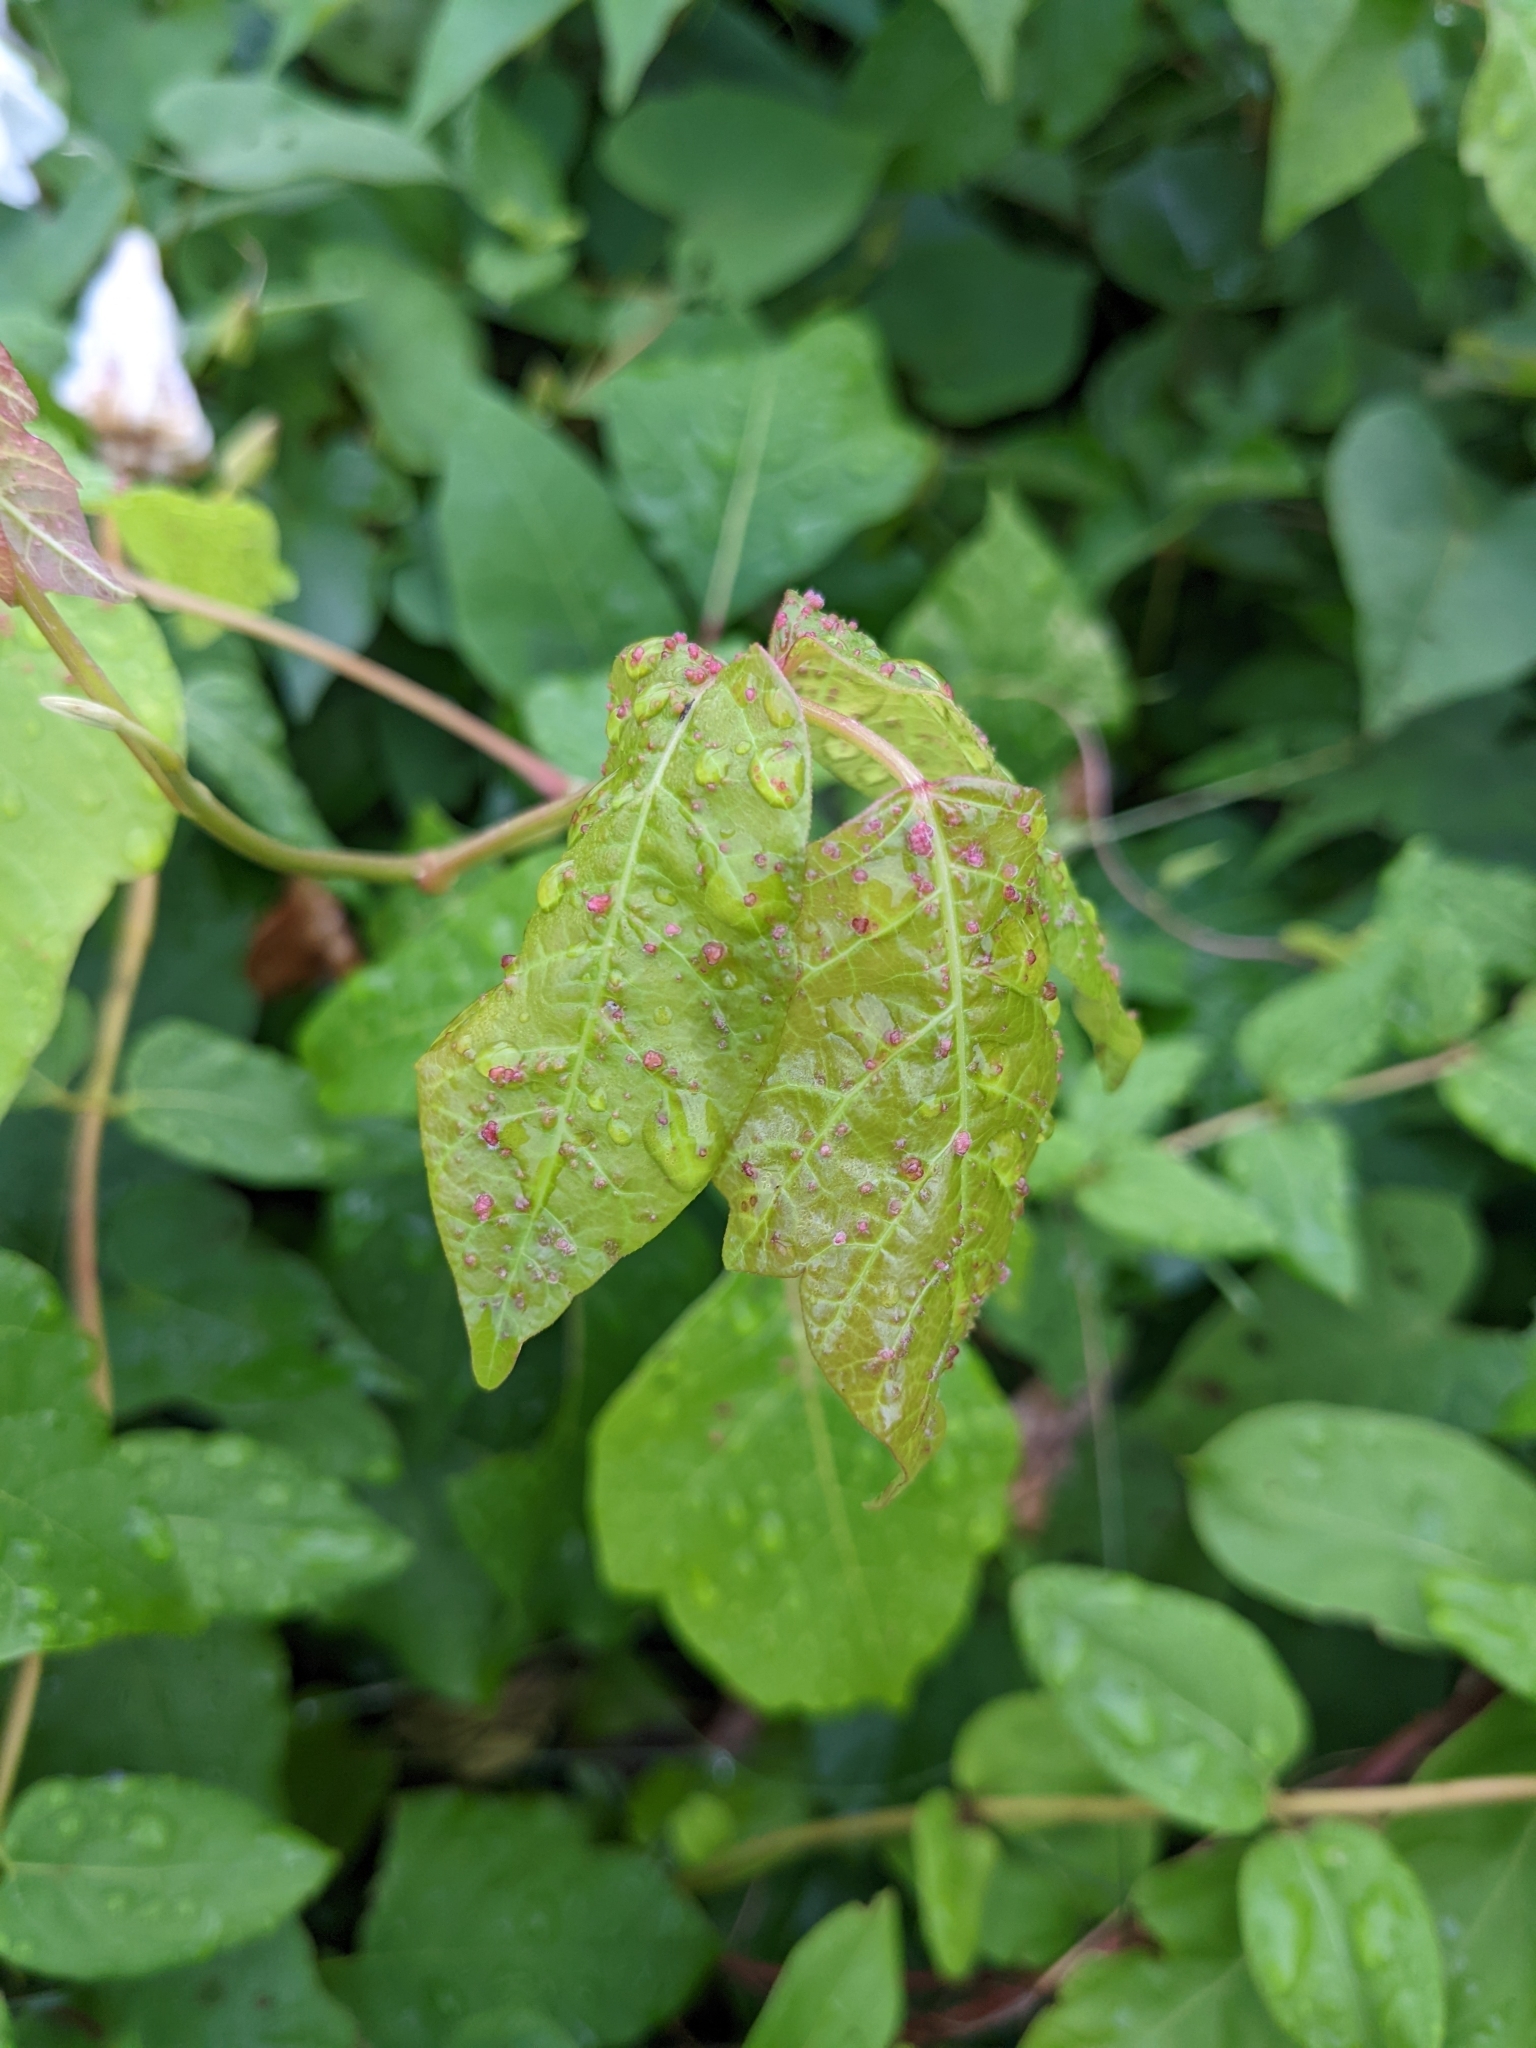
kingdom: Animalia
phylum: Arthropoda
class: Arachnida
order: Trombidiformes
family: Eriophyidae
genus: Aculops
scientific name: Aculops
